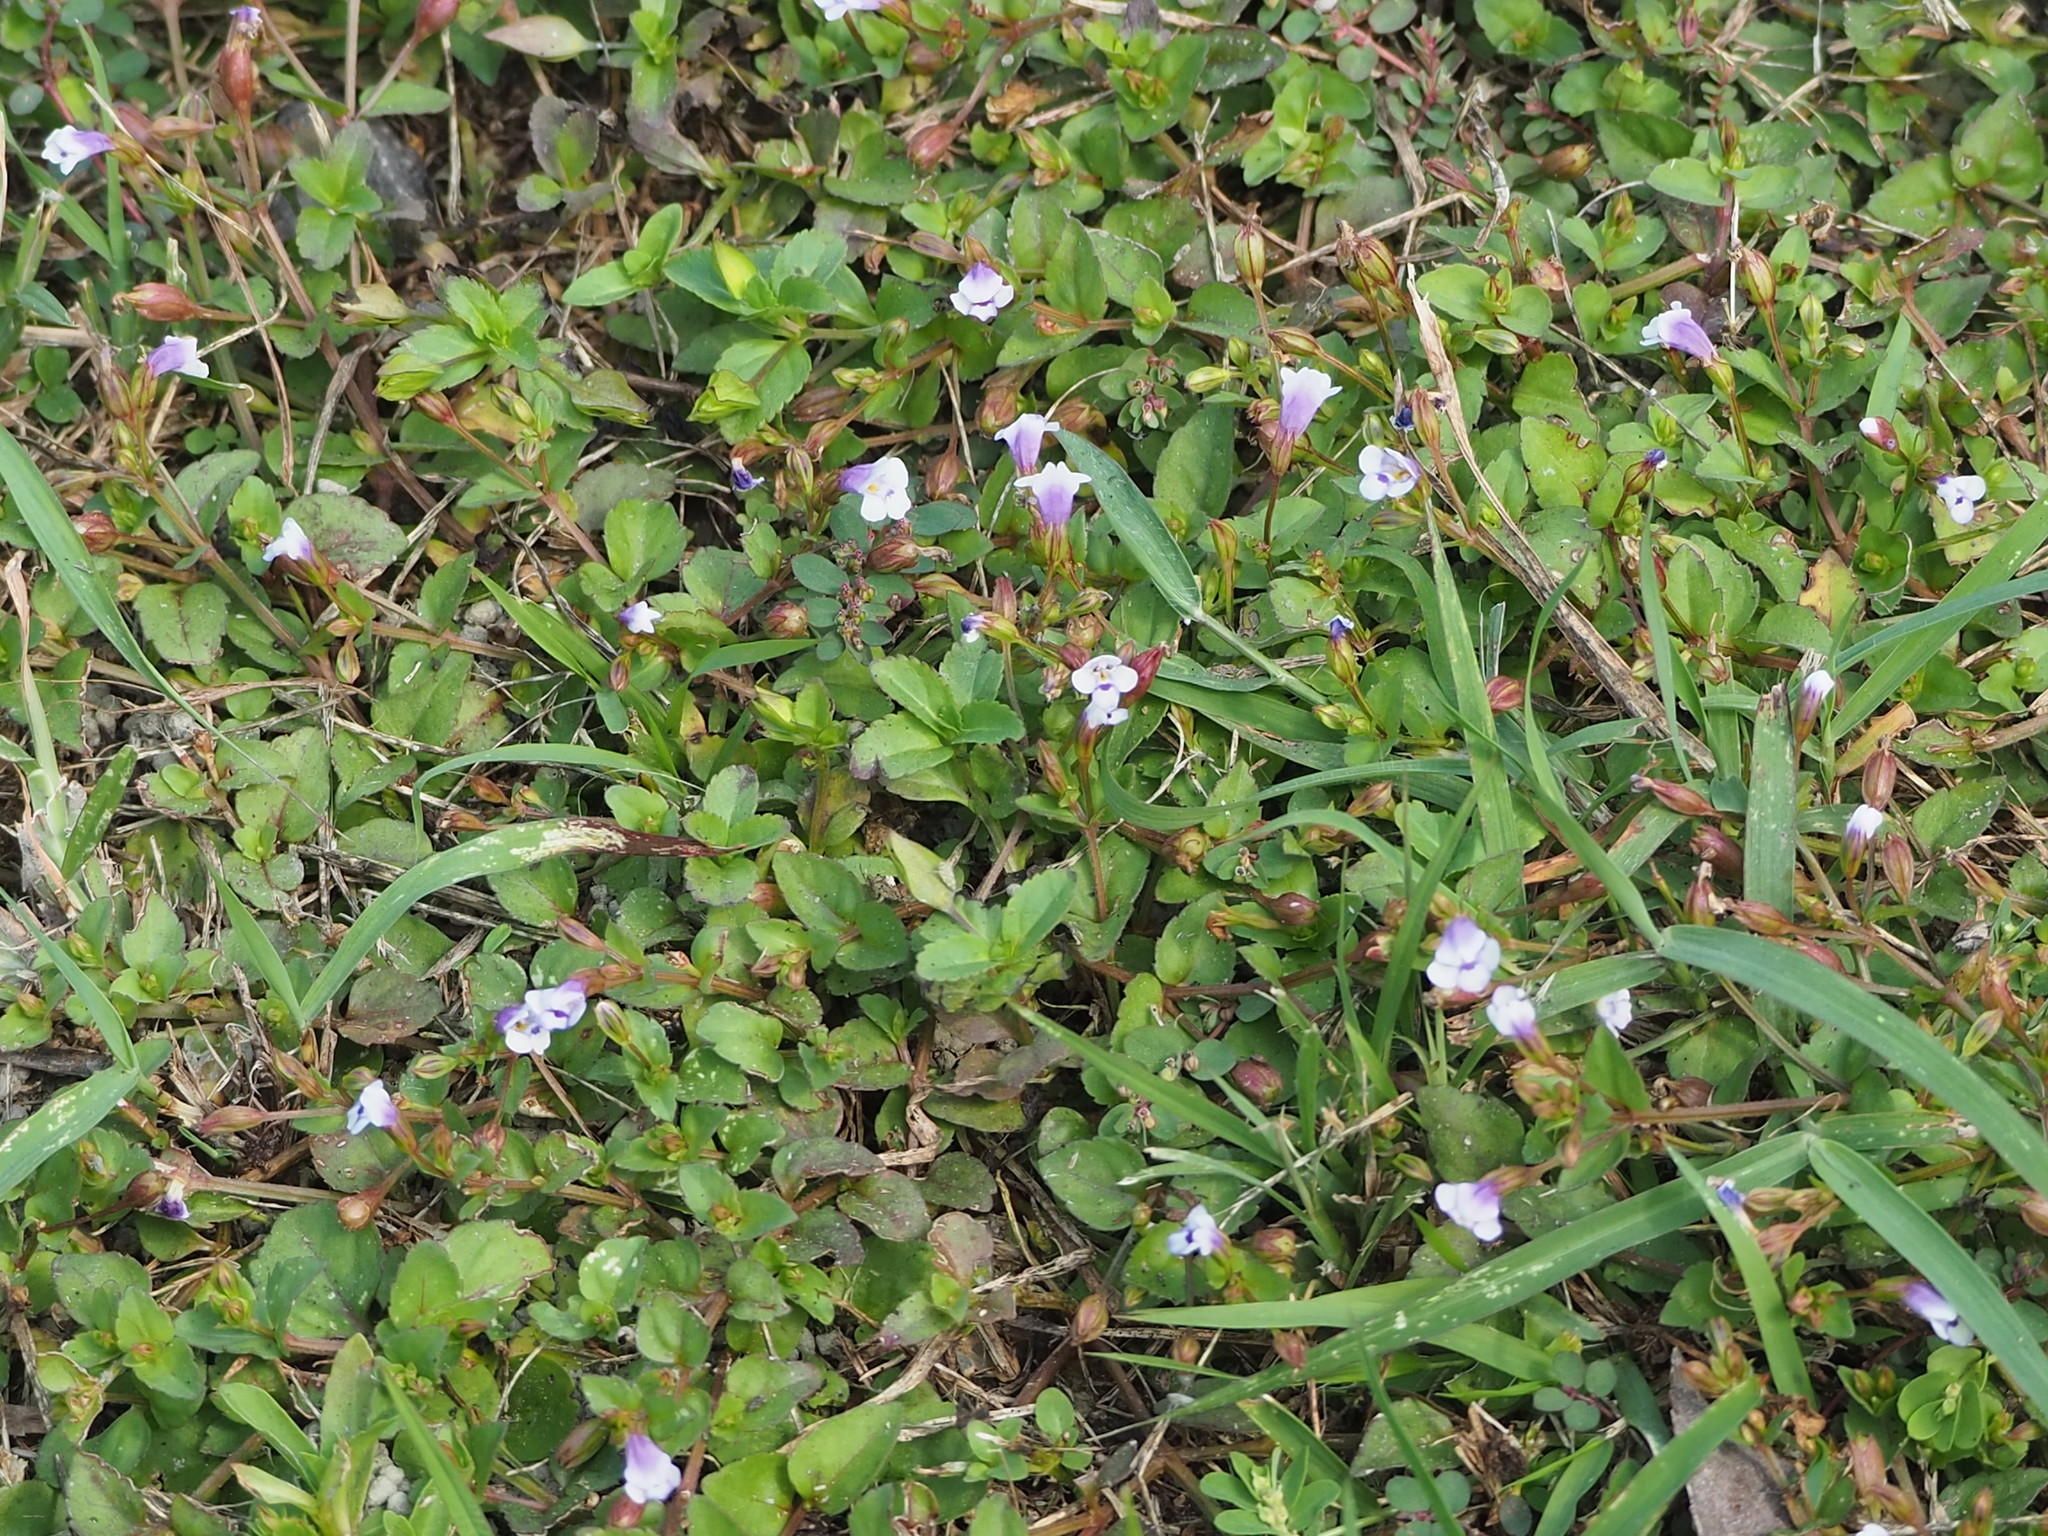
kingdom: Plantae
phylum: Tracheophyta
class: Magnoliopsida
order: Lamiales
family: Linderniaceae
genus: Torenia
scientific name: Torenia crustacea
